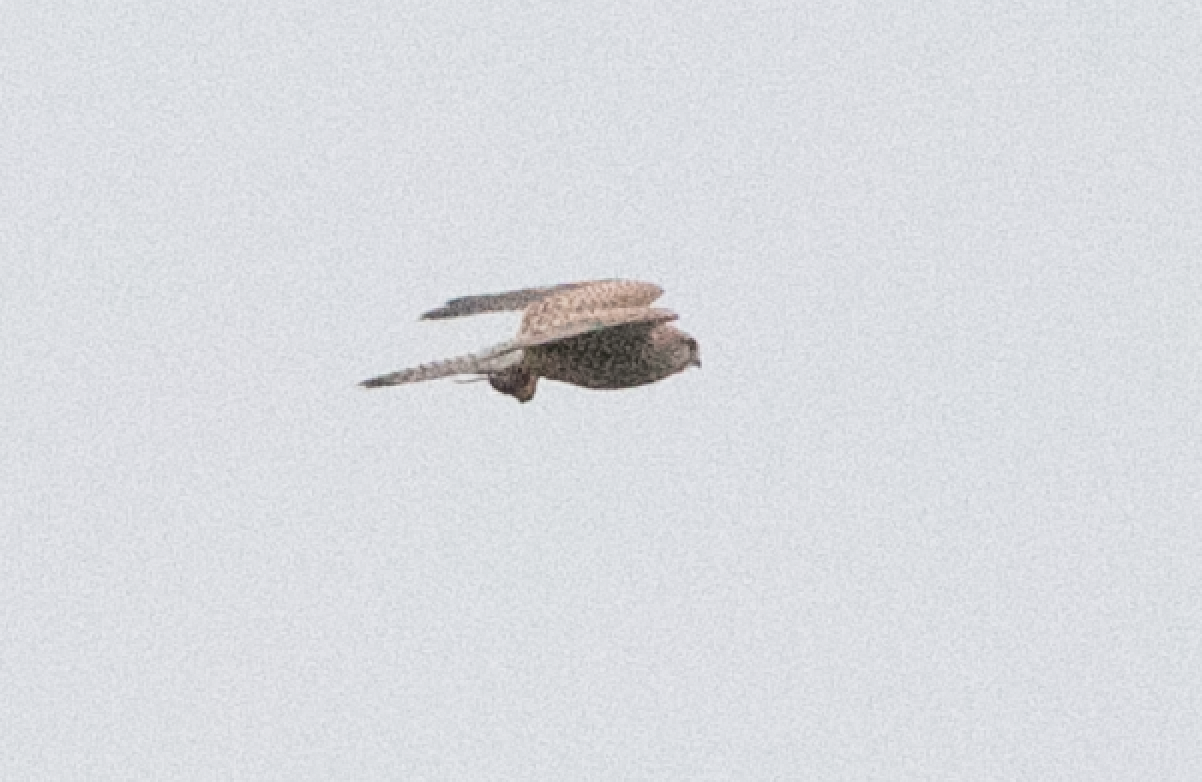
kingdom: Animalia
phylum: Chordata
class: Aves
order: Falconiformes
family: Falconidae
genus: Falco
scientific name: Falco tinnunculus
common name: Common kestrel
